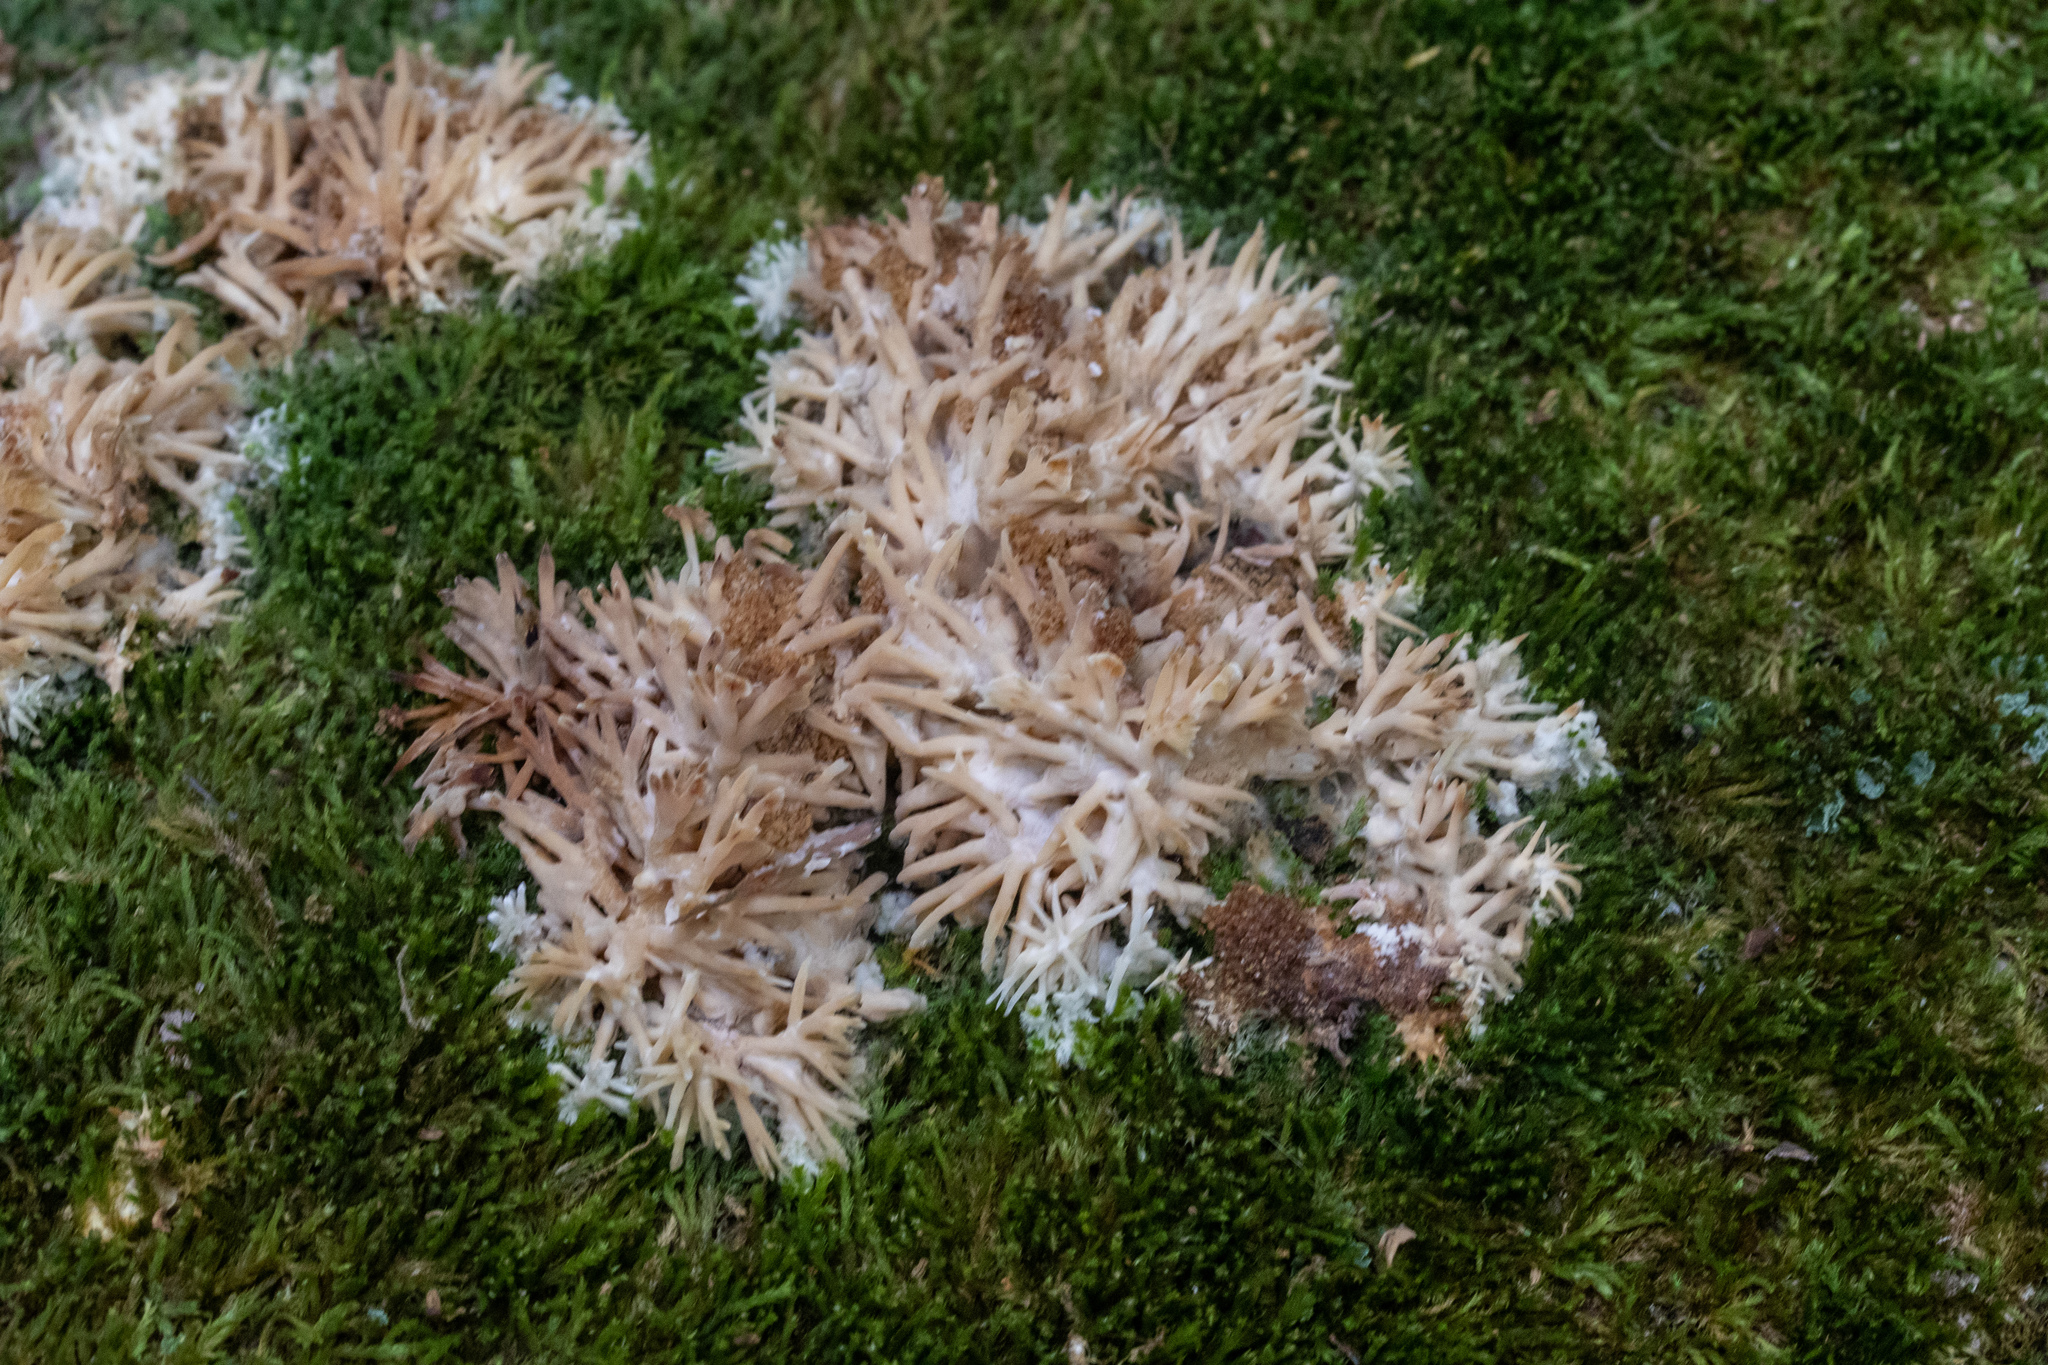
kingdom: Fungi
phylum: Basidiomycota
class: Agaricomycetes
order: Agaricales
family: Radulomycetaceae
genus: Radulomyces
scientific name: Radulomyces copelandii
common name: Asian beauty
